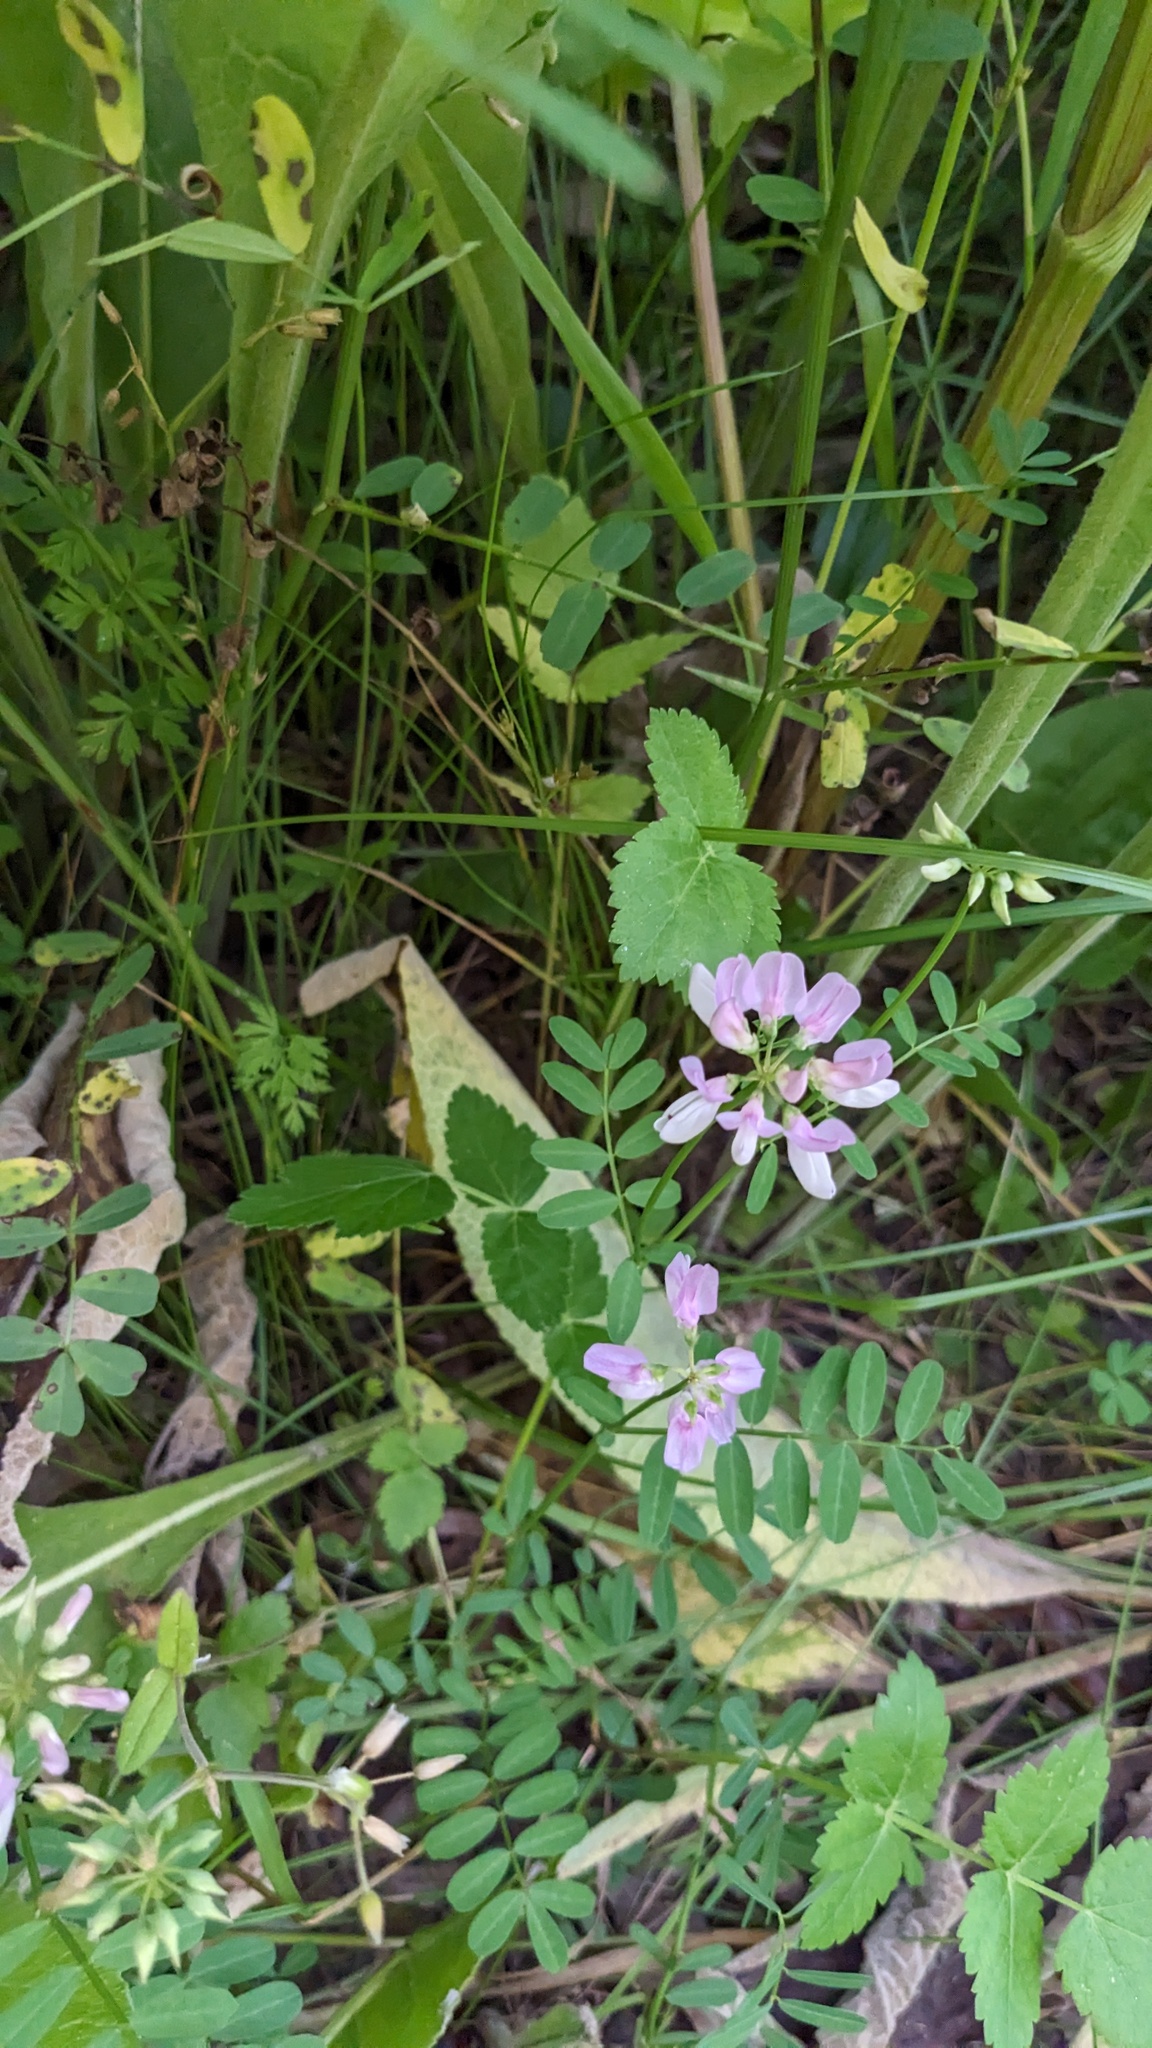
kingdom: Plantae
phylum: Tracheophyta
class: Magnoliopsida
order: Fabales
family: Fabaceae
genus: Coronilla
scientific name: Coronilla varia
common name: Crownvetch
